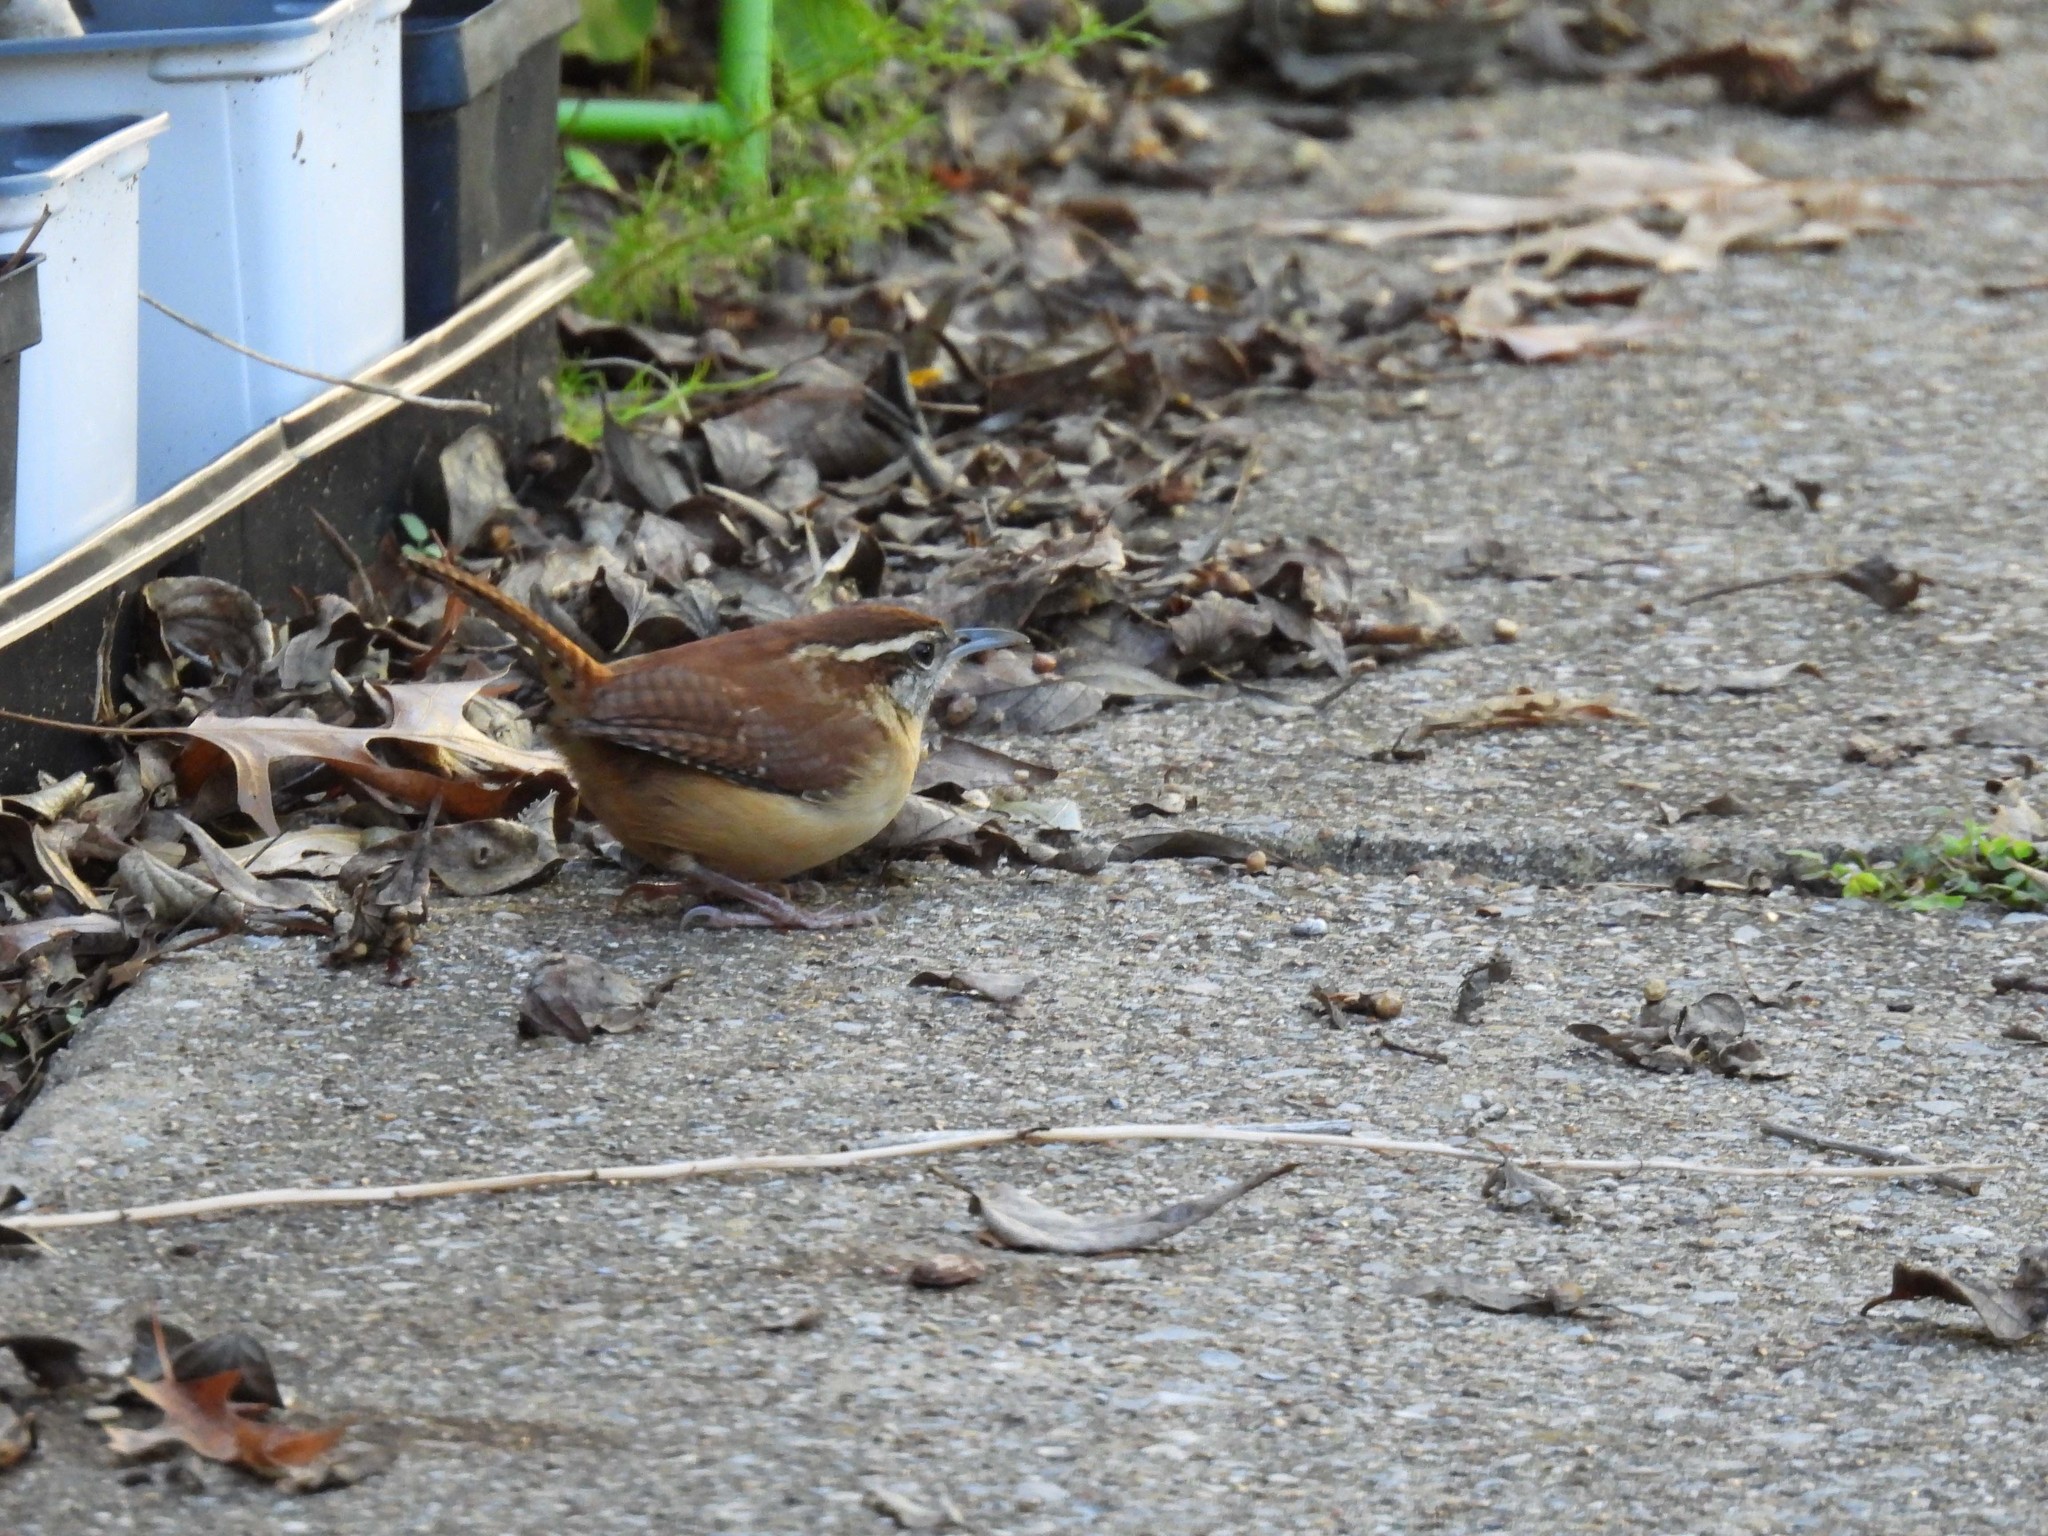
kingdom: Animalia
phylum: Chordata
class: Aves
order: Passeriformes
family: Troglodytidae
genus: Thryothorus
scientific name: Thryothorus ludovicianus
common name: Carolina wren
